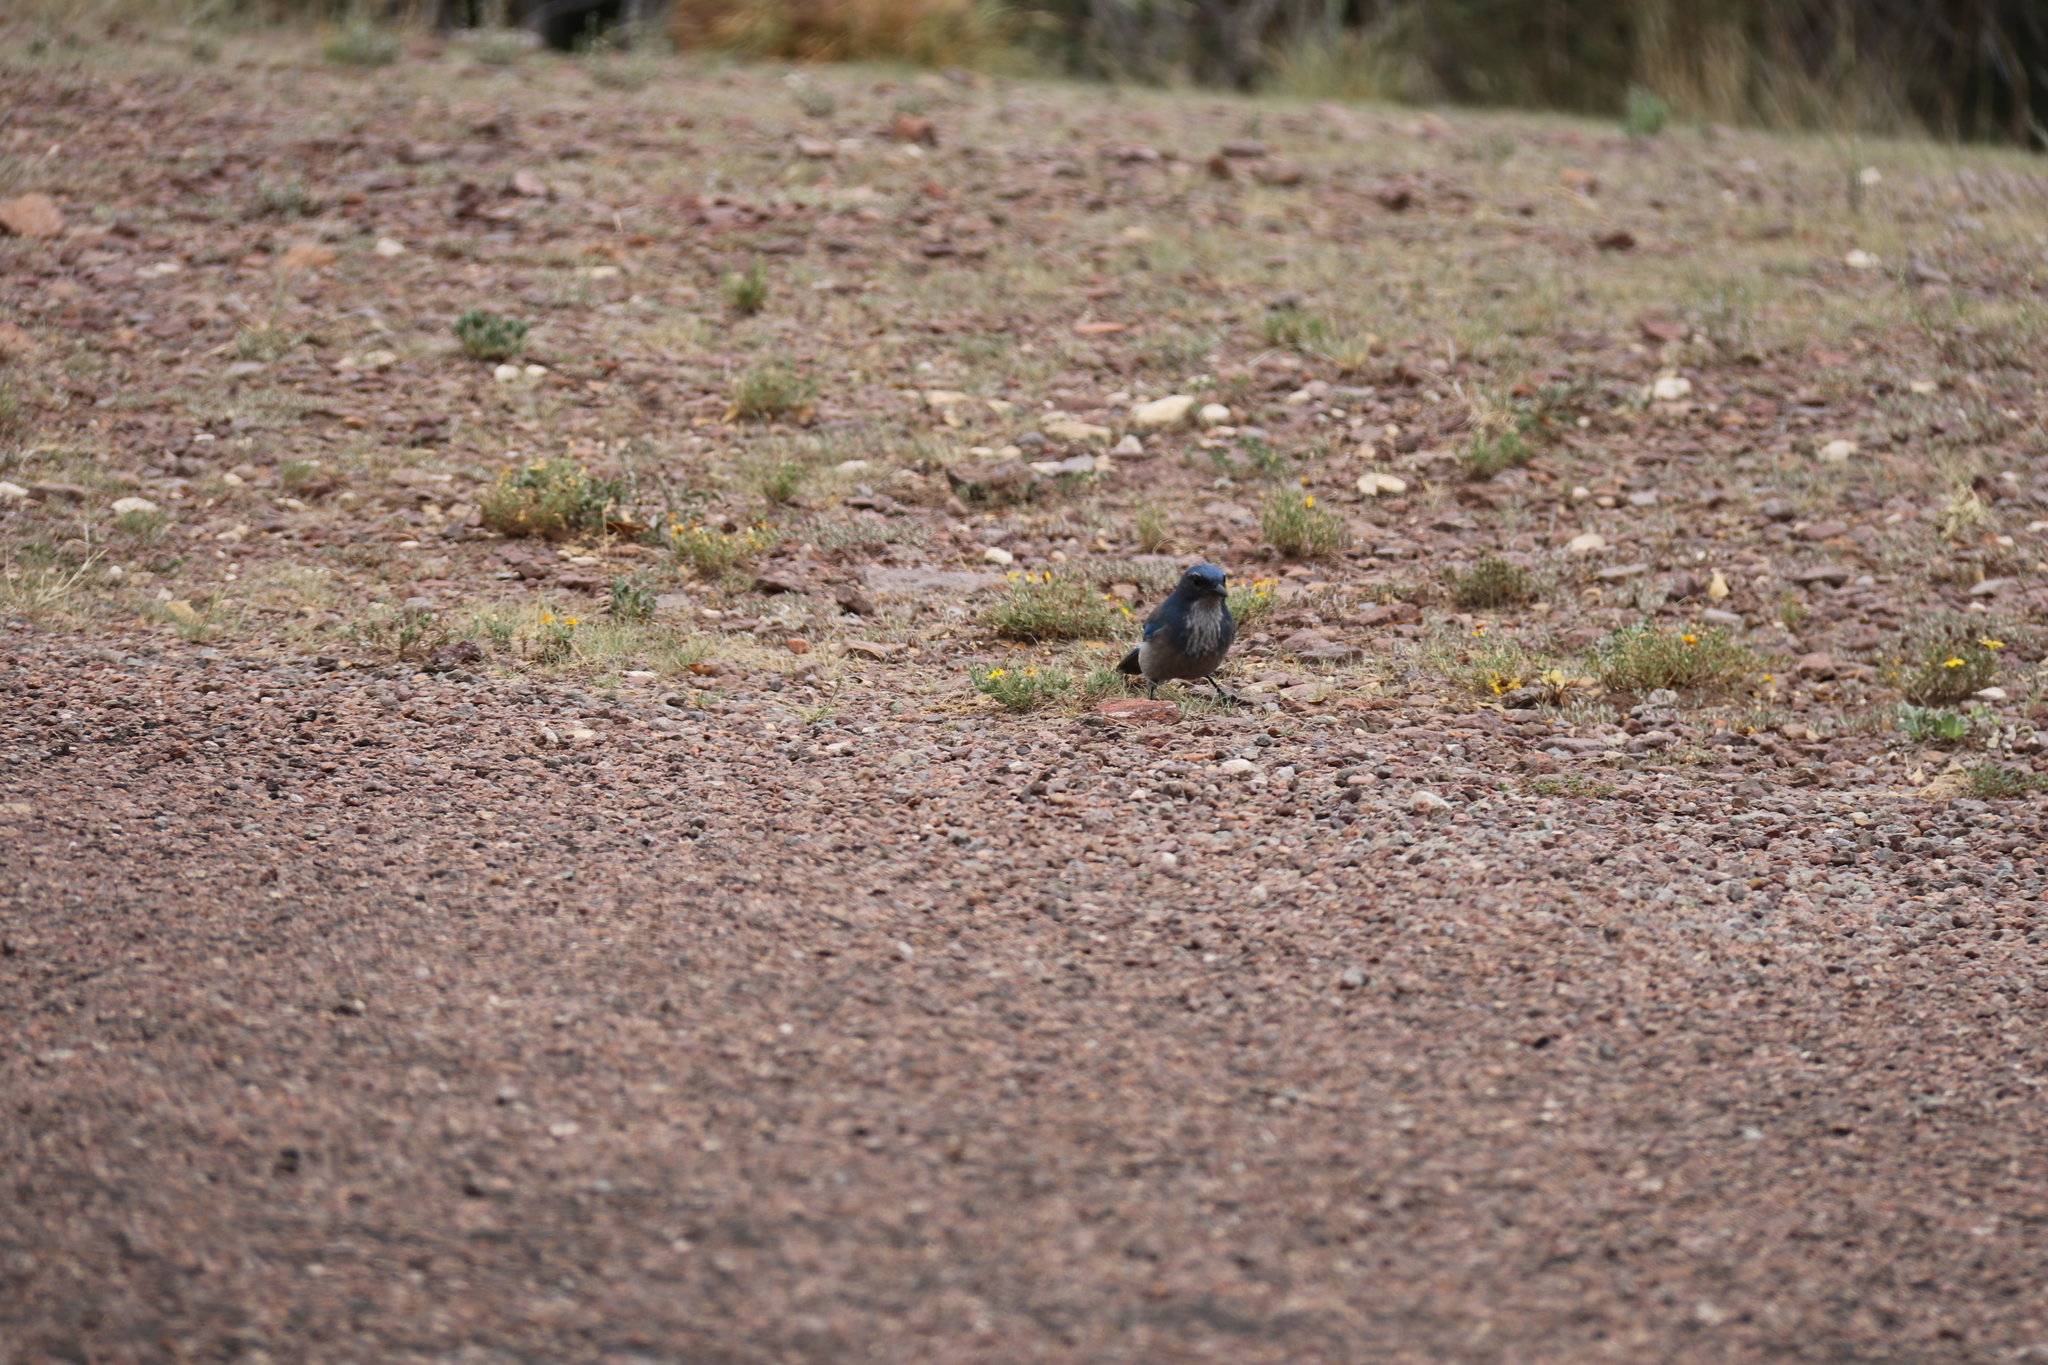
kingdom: Animalia
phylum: Chordata
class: Aves
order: Passeriformes
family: Corvidae
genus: Aphelocoma
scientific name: Aphelocoma woodhouseii
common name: Woodhouse's scrub-jay
